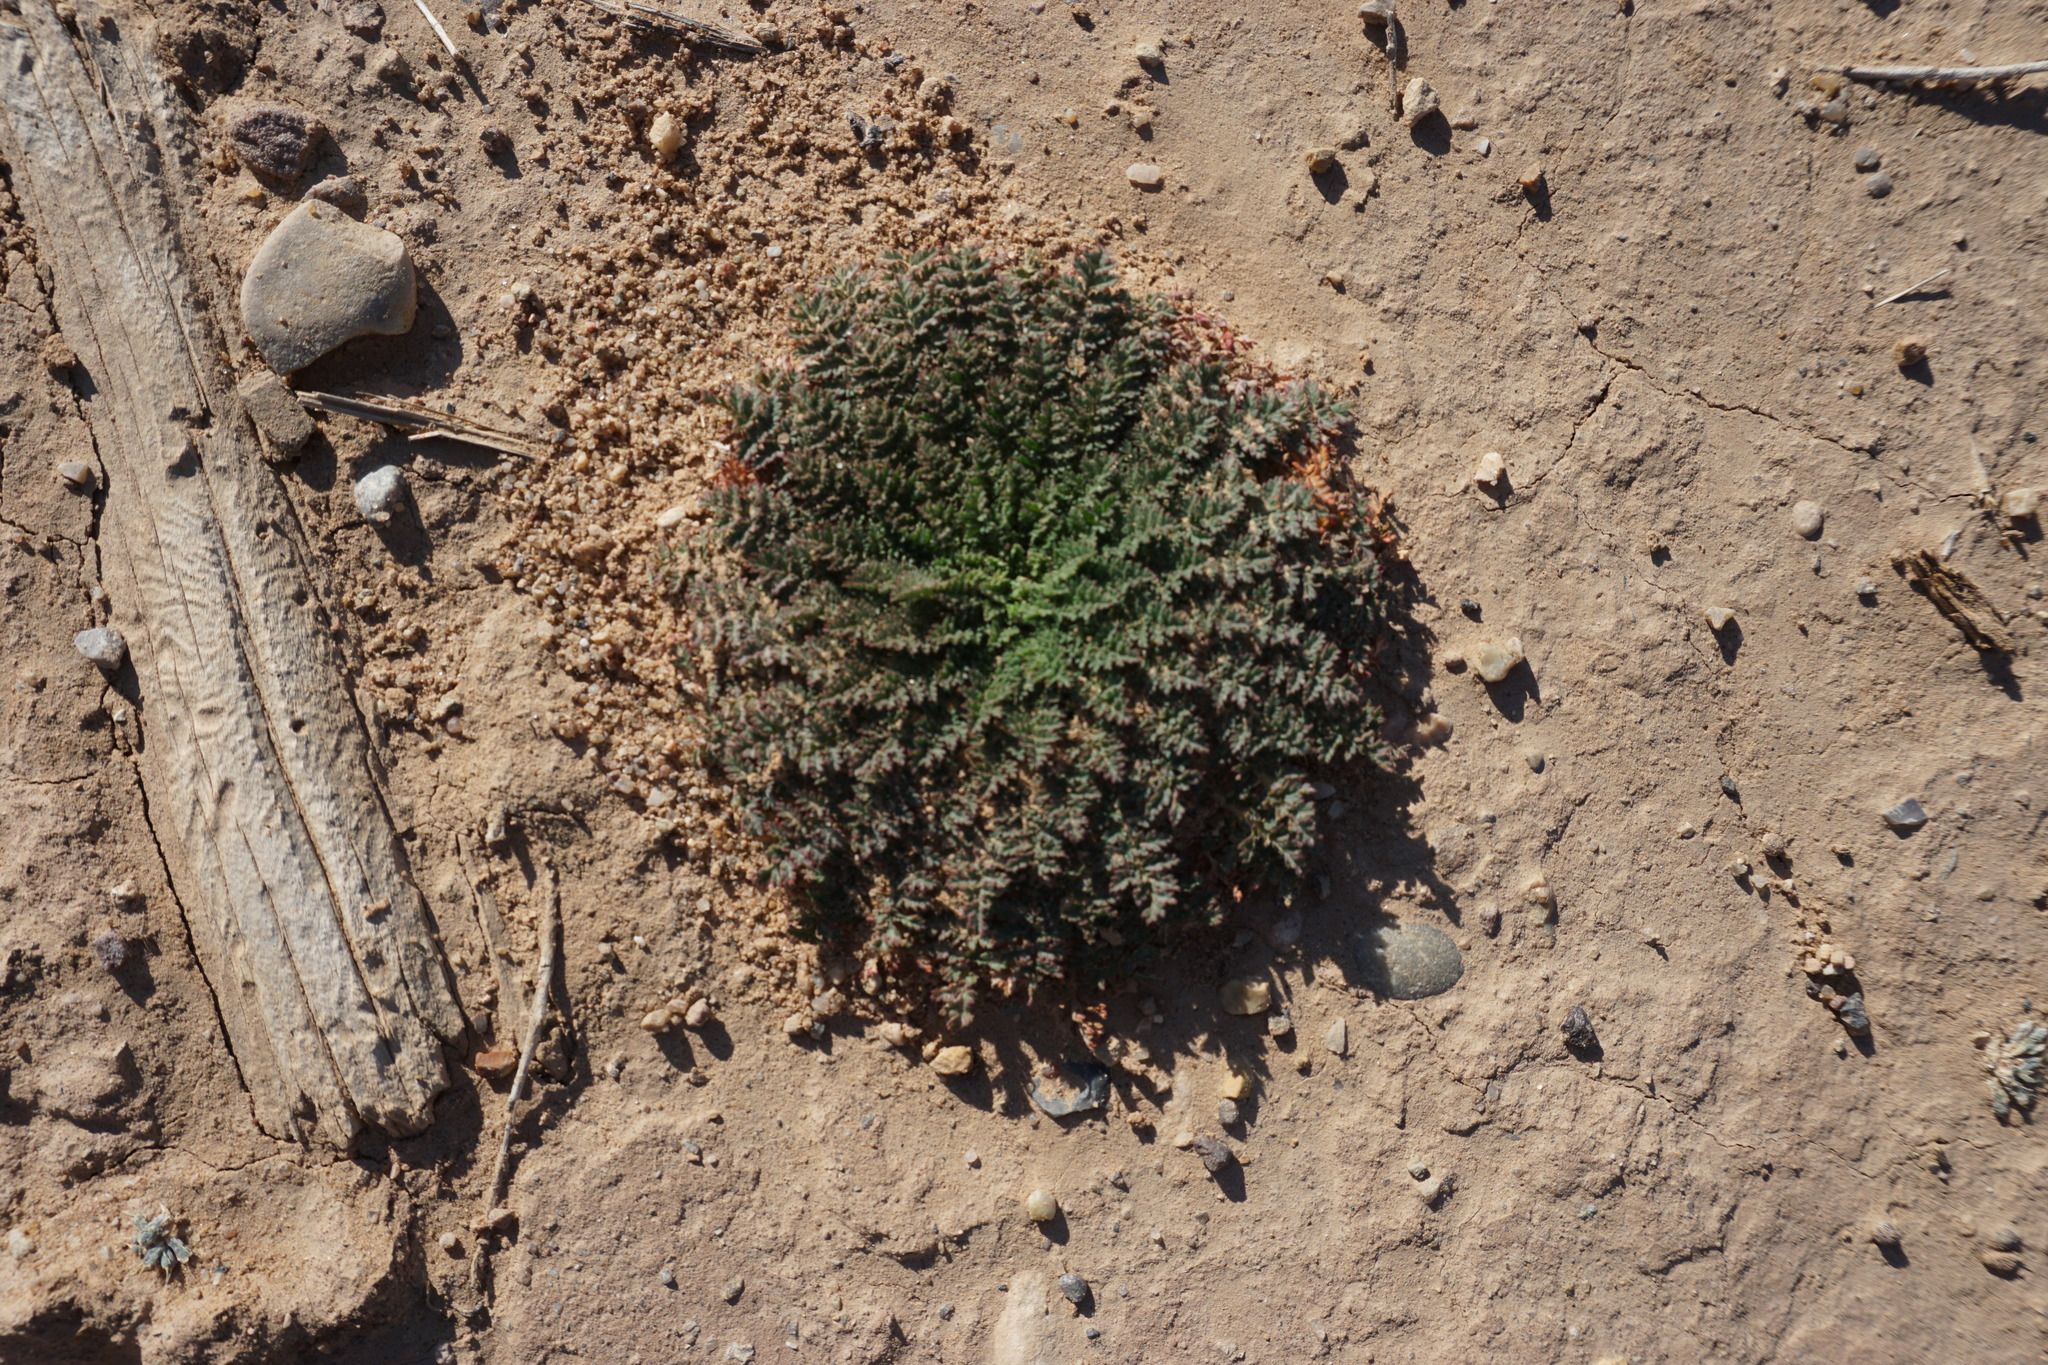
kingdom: Plantae
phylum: Tracheophyta
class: Magnoliopsida
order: Geraniales
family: Geraniaceae
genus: Erodium
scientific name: Erodium cicutarium
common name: Common stork's-bill
